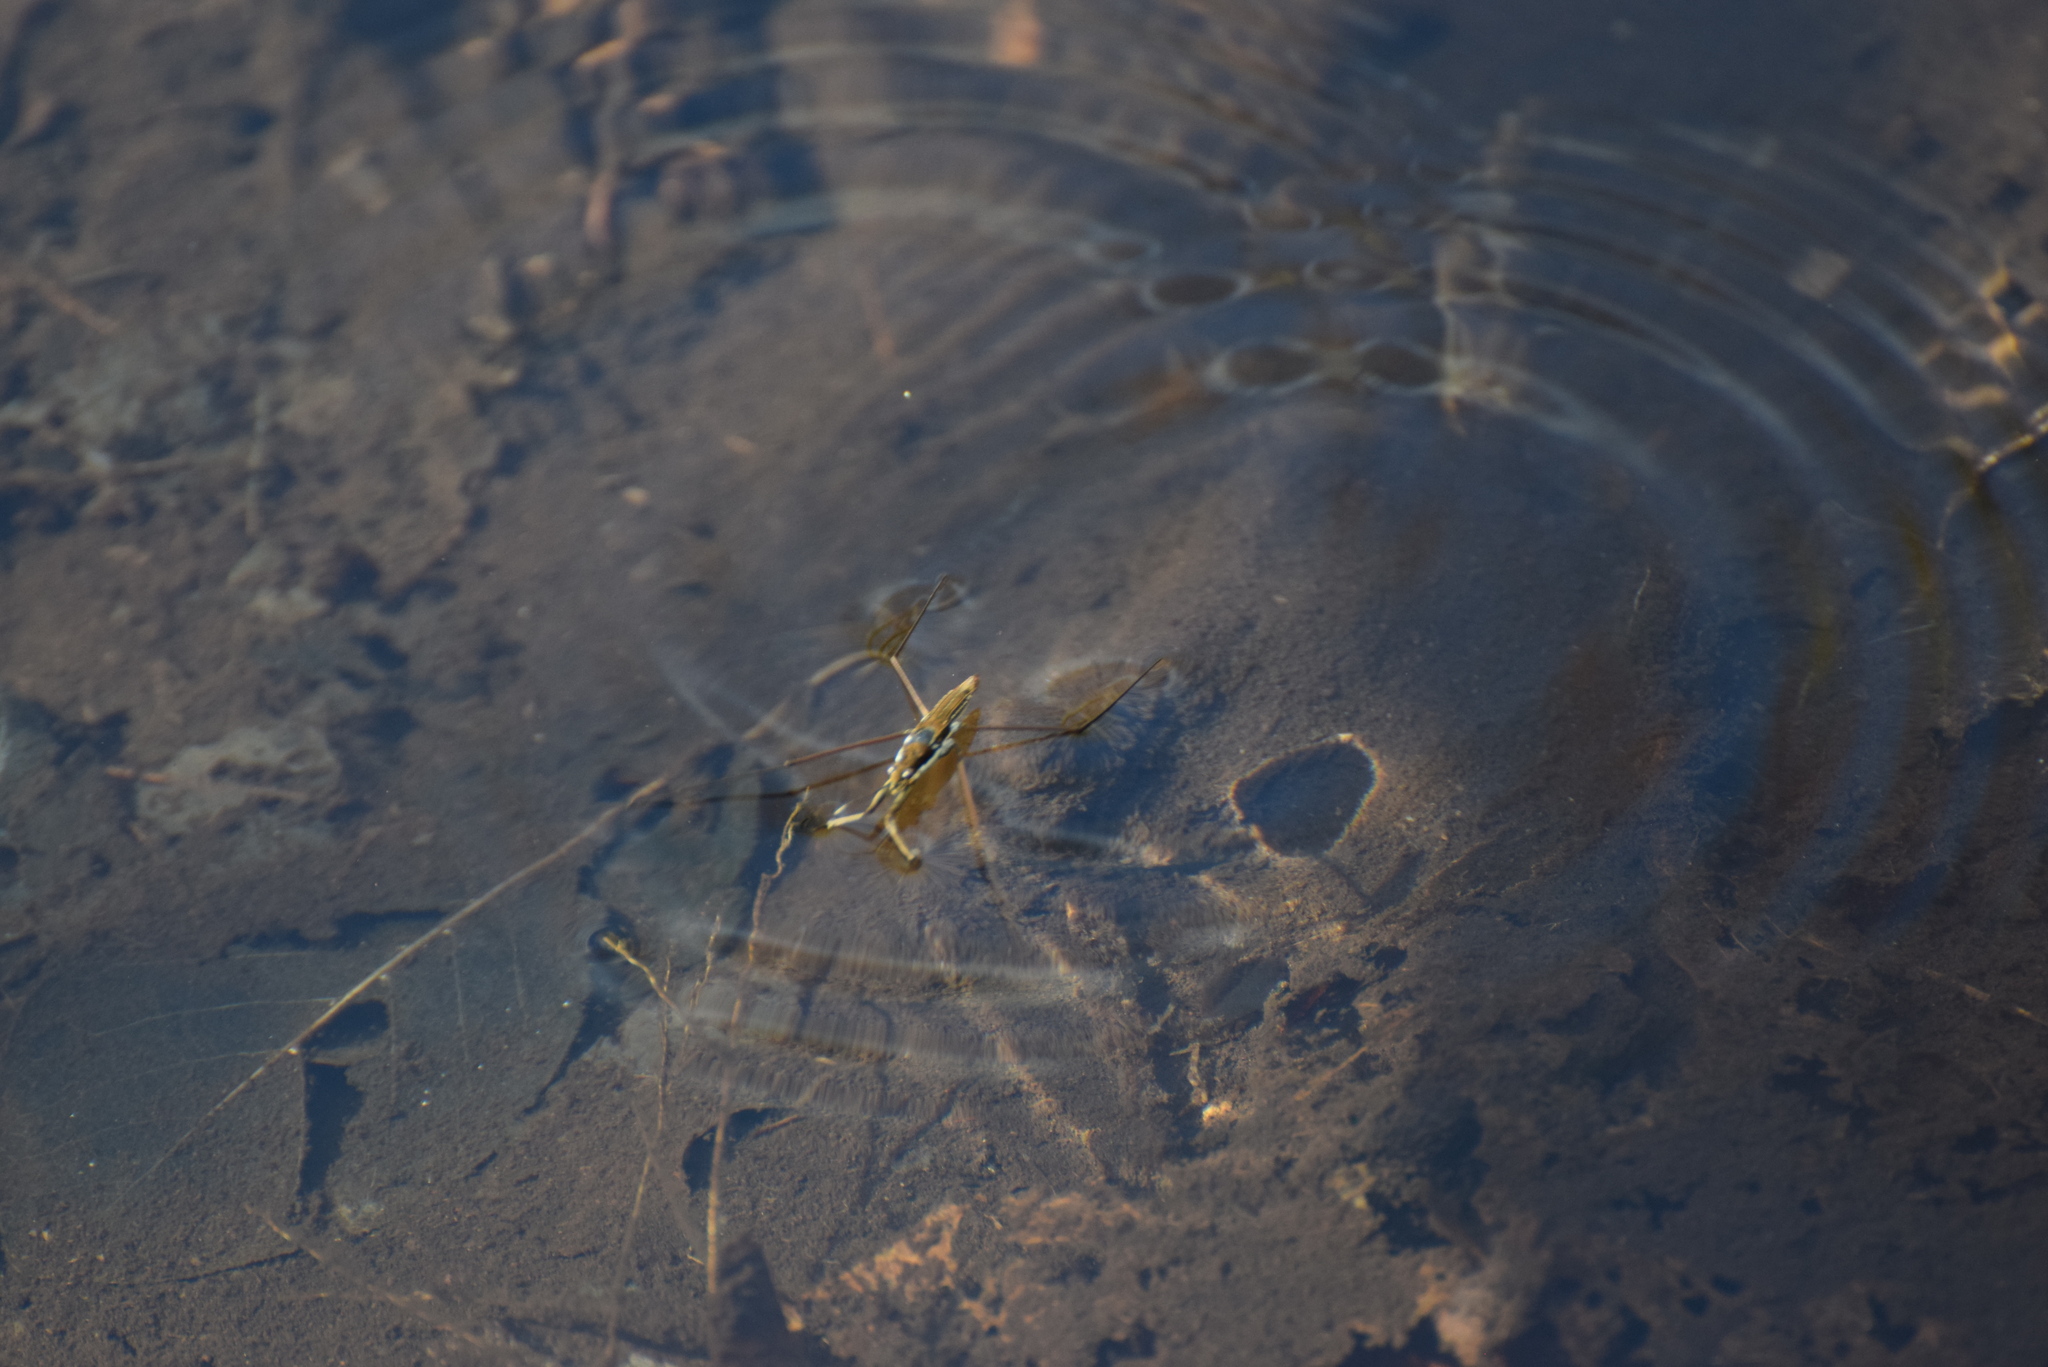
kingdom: Animalia
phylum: Arthropoda
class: Insecta
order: Hemiptera
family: Gerridae
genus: Aquarius
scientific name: Aquarius
